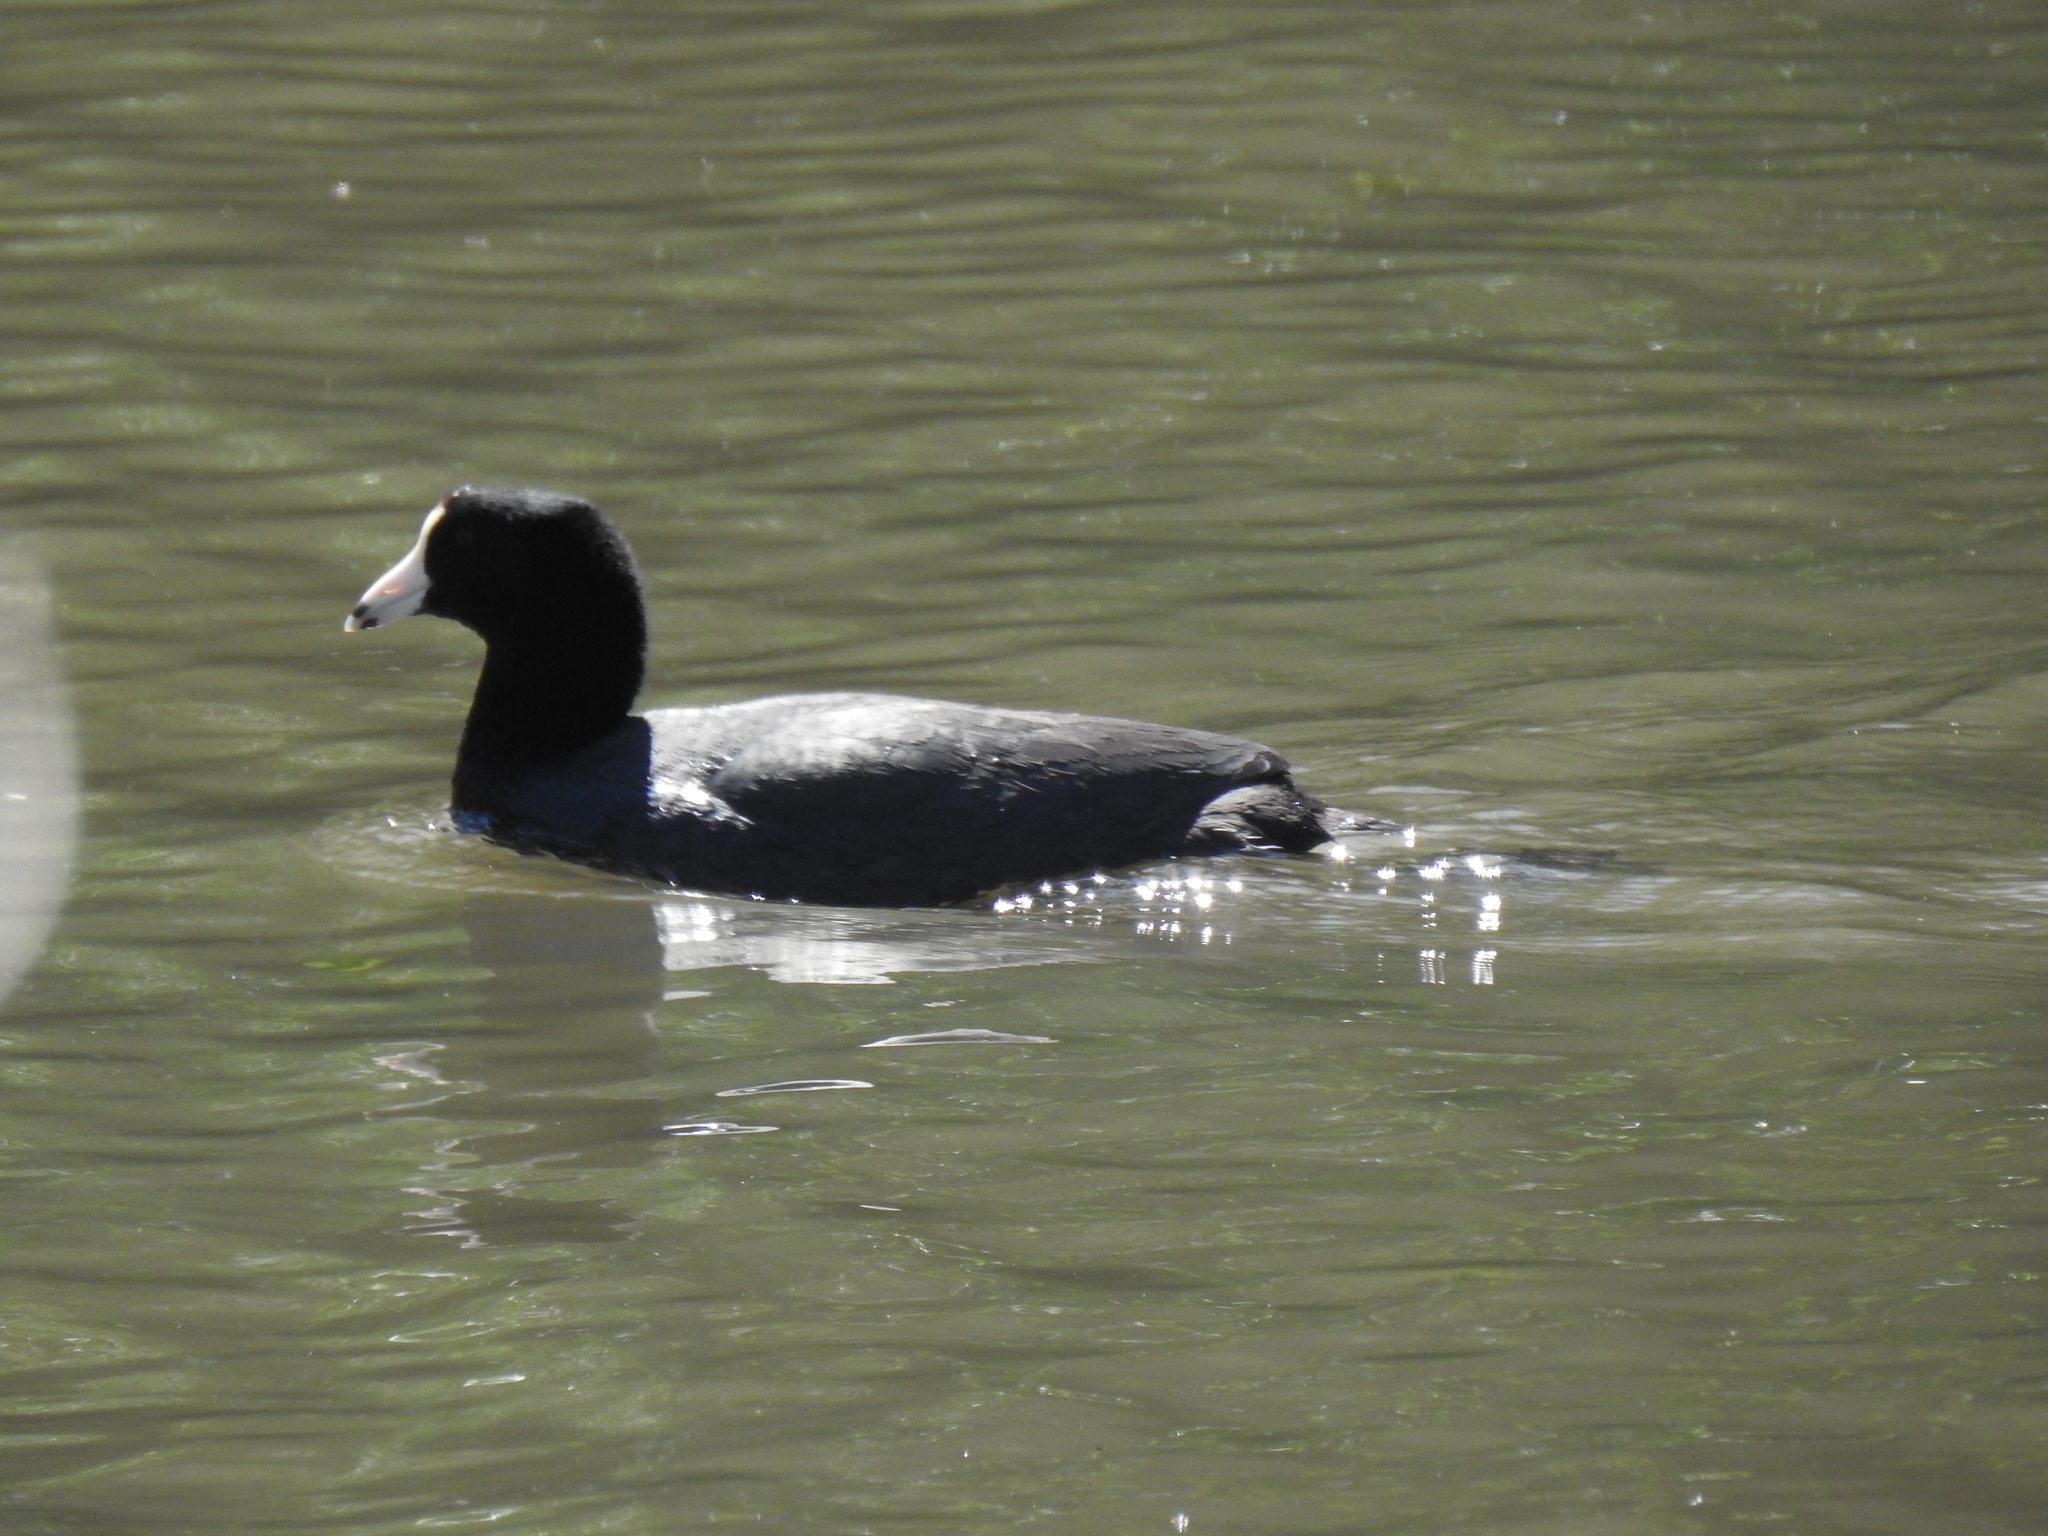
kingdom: Animalia
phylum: Chordata
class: Aves
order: Gruiformes
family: Rallidae
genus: Fulica
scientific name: Fulica americana
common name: American coot
